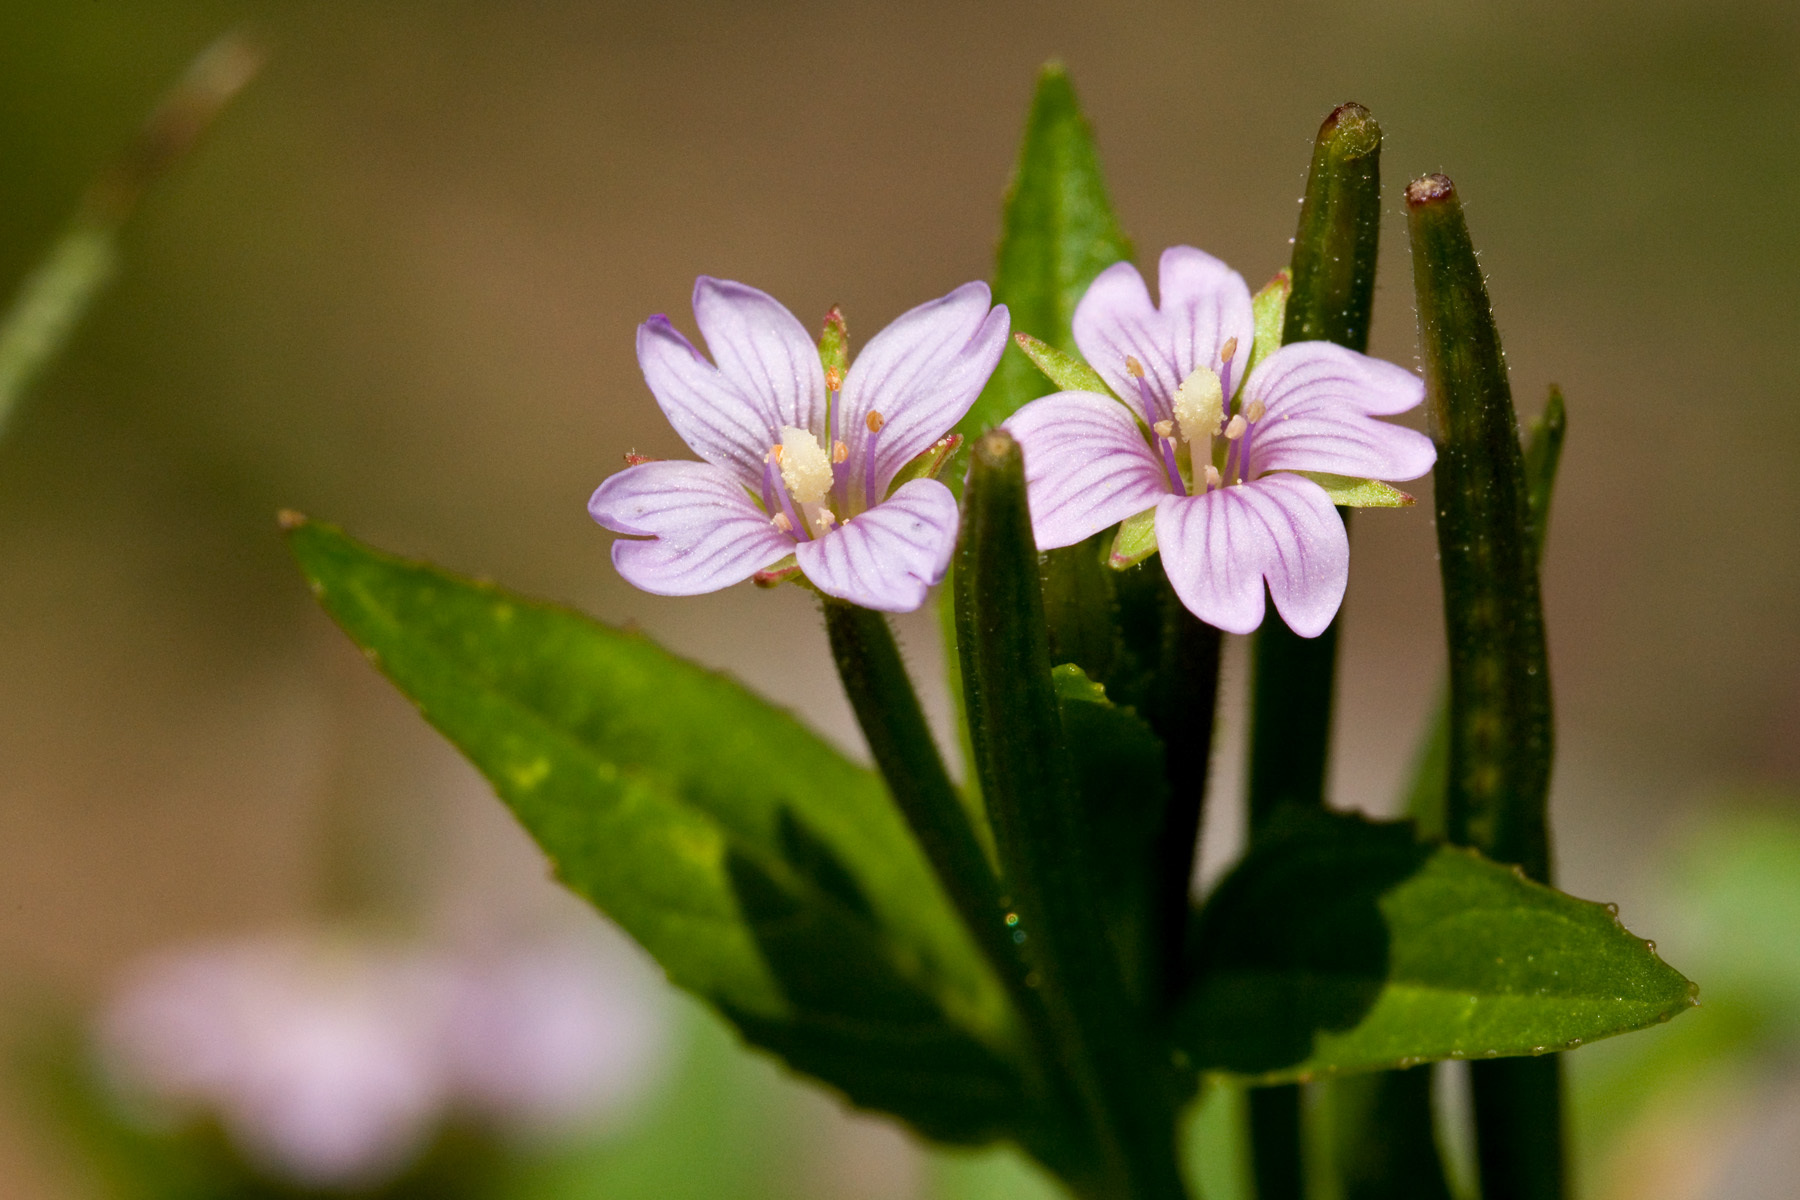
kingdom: Plantae
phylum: Tracheophyta
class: Magnoliopsida
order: Myrtales
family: Onagraceae
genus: Epilobium
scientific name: Epilobium hornemannii
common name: Hornemann's willowherb
